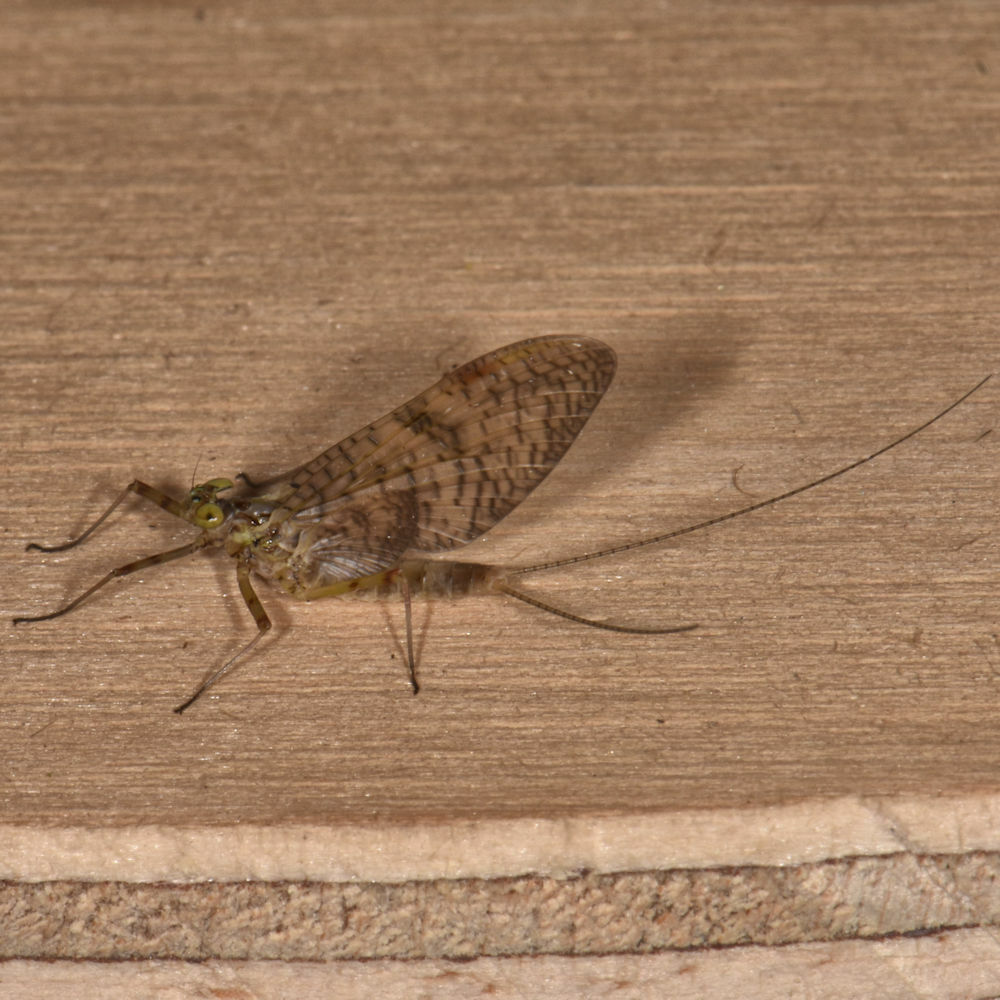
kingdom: Animalia
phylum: Arthropoda
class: Insecta
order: Ephemeroptera
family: Heptageniidae
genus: Stenonema
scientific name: Stenonema femoratum
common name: Dark cahill
